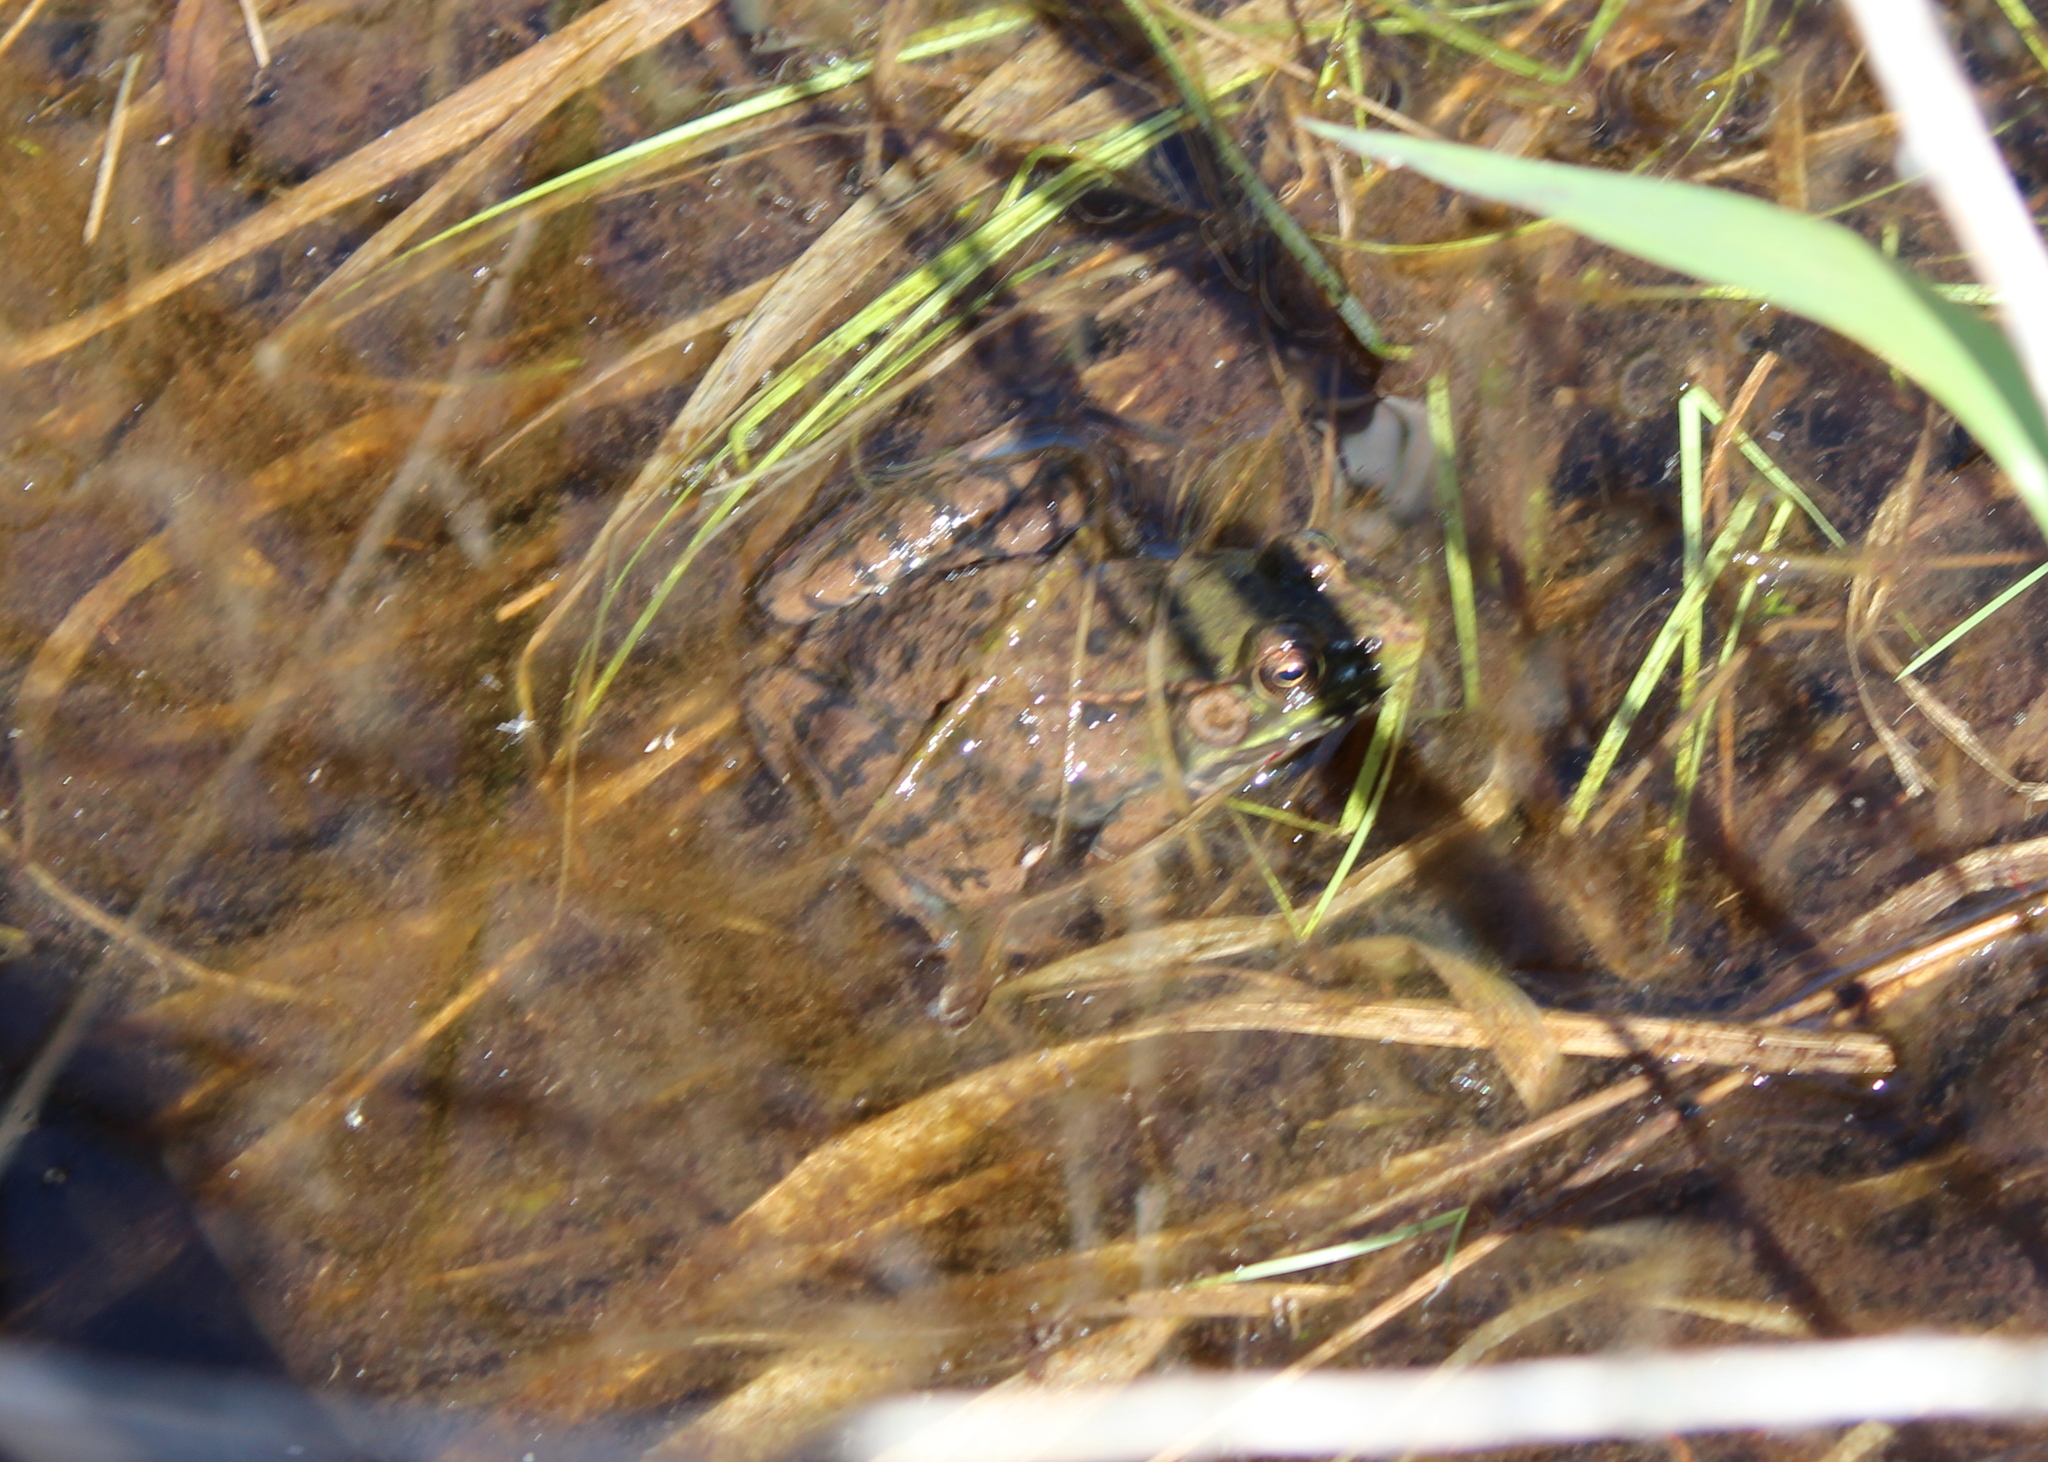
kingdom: Animalia
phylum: Chordata
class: Amphibia
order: Anura
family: Ranidae
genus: Lithobates
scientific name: Lithobates clamitans
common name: Green frog
